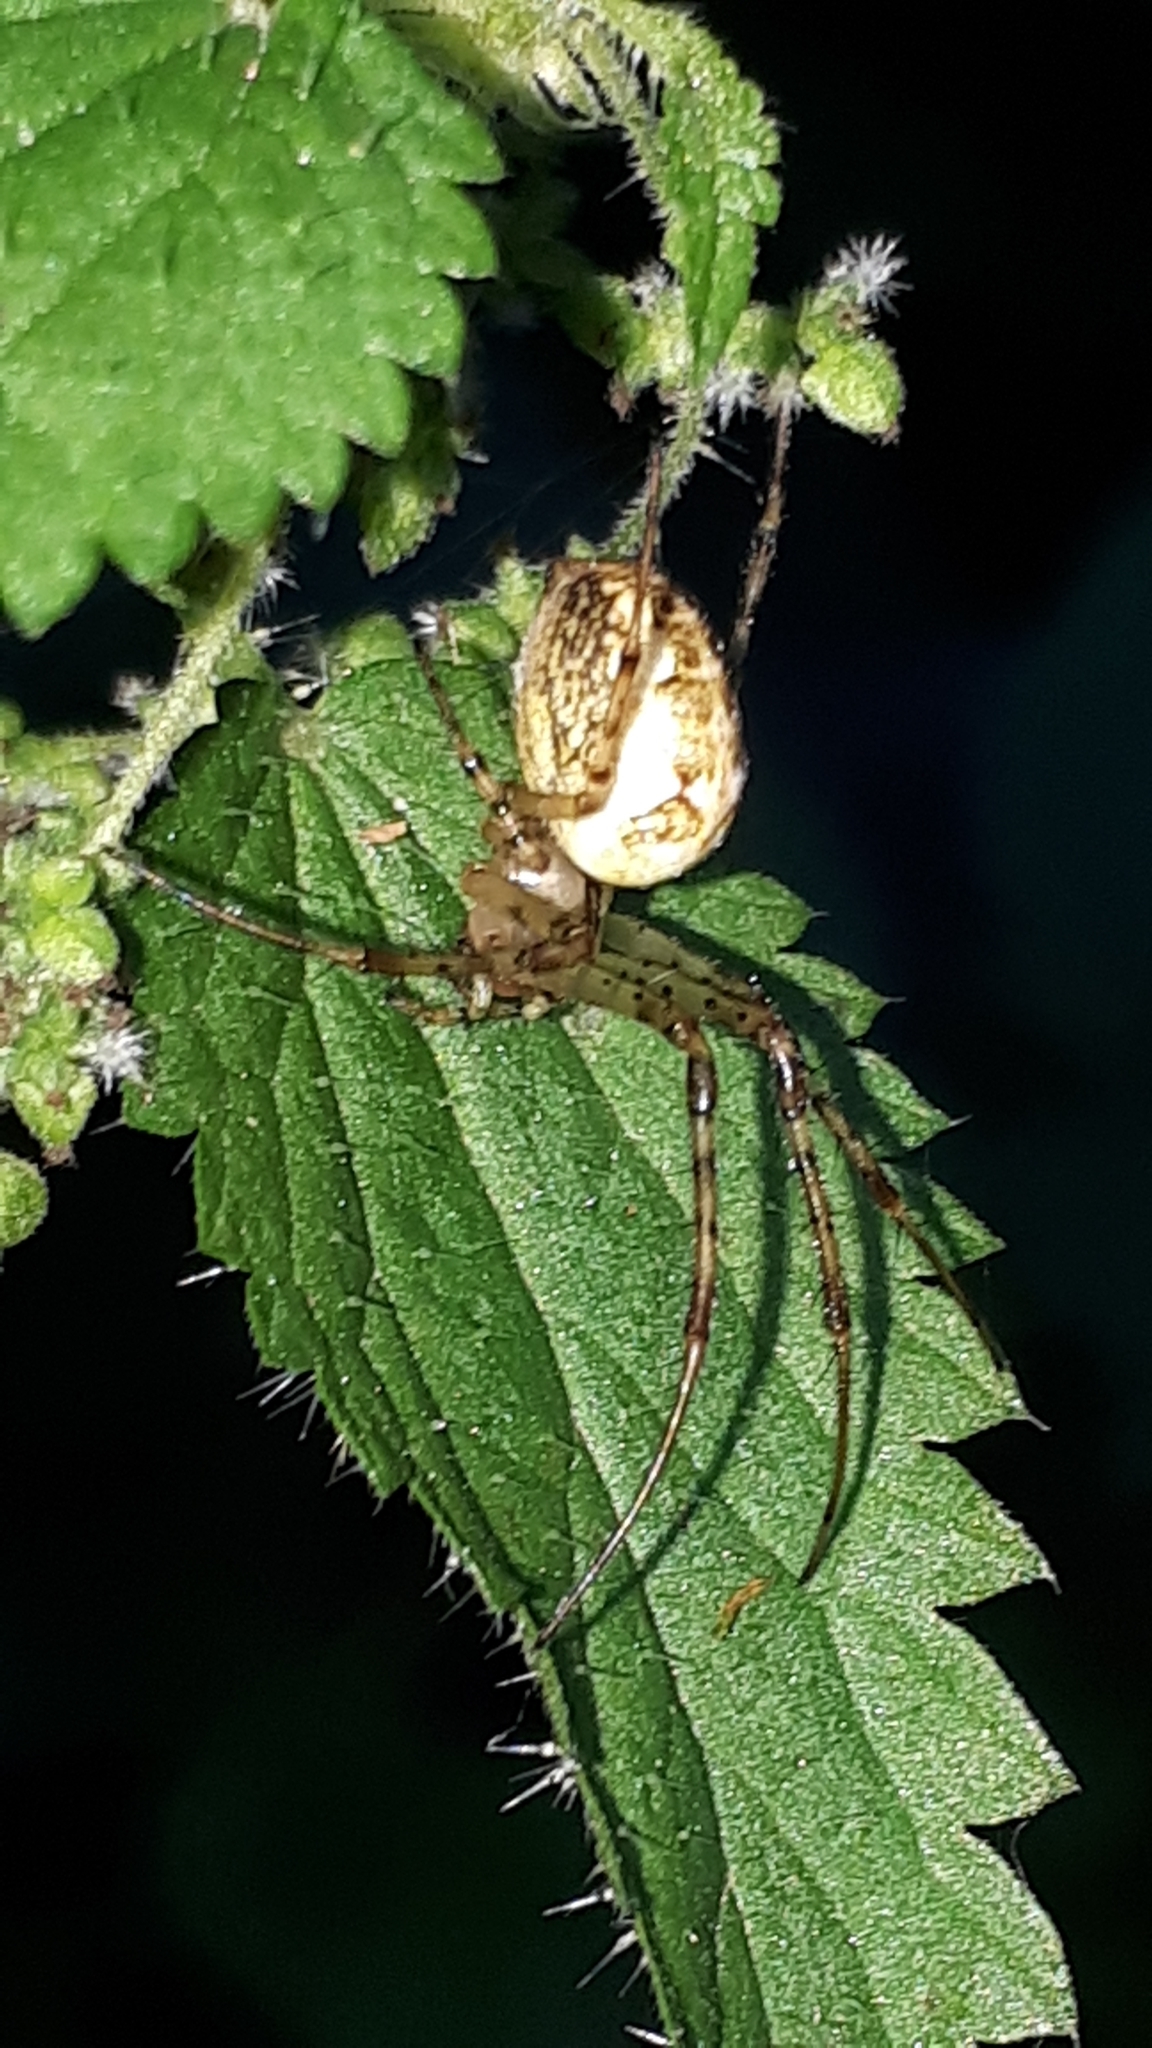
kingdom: Animalia
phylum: Arthropoda
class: Arachnida
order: Araneae
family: Tetragnathidae
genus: Metellina
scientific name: Metellina segmentata
